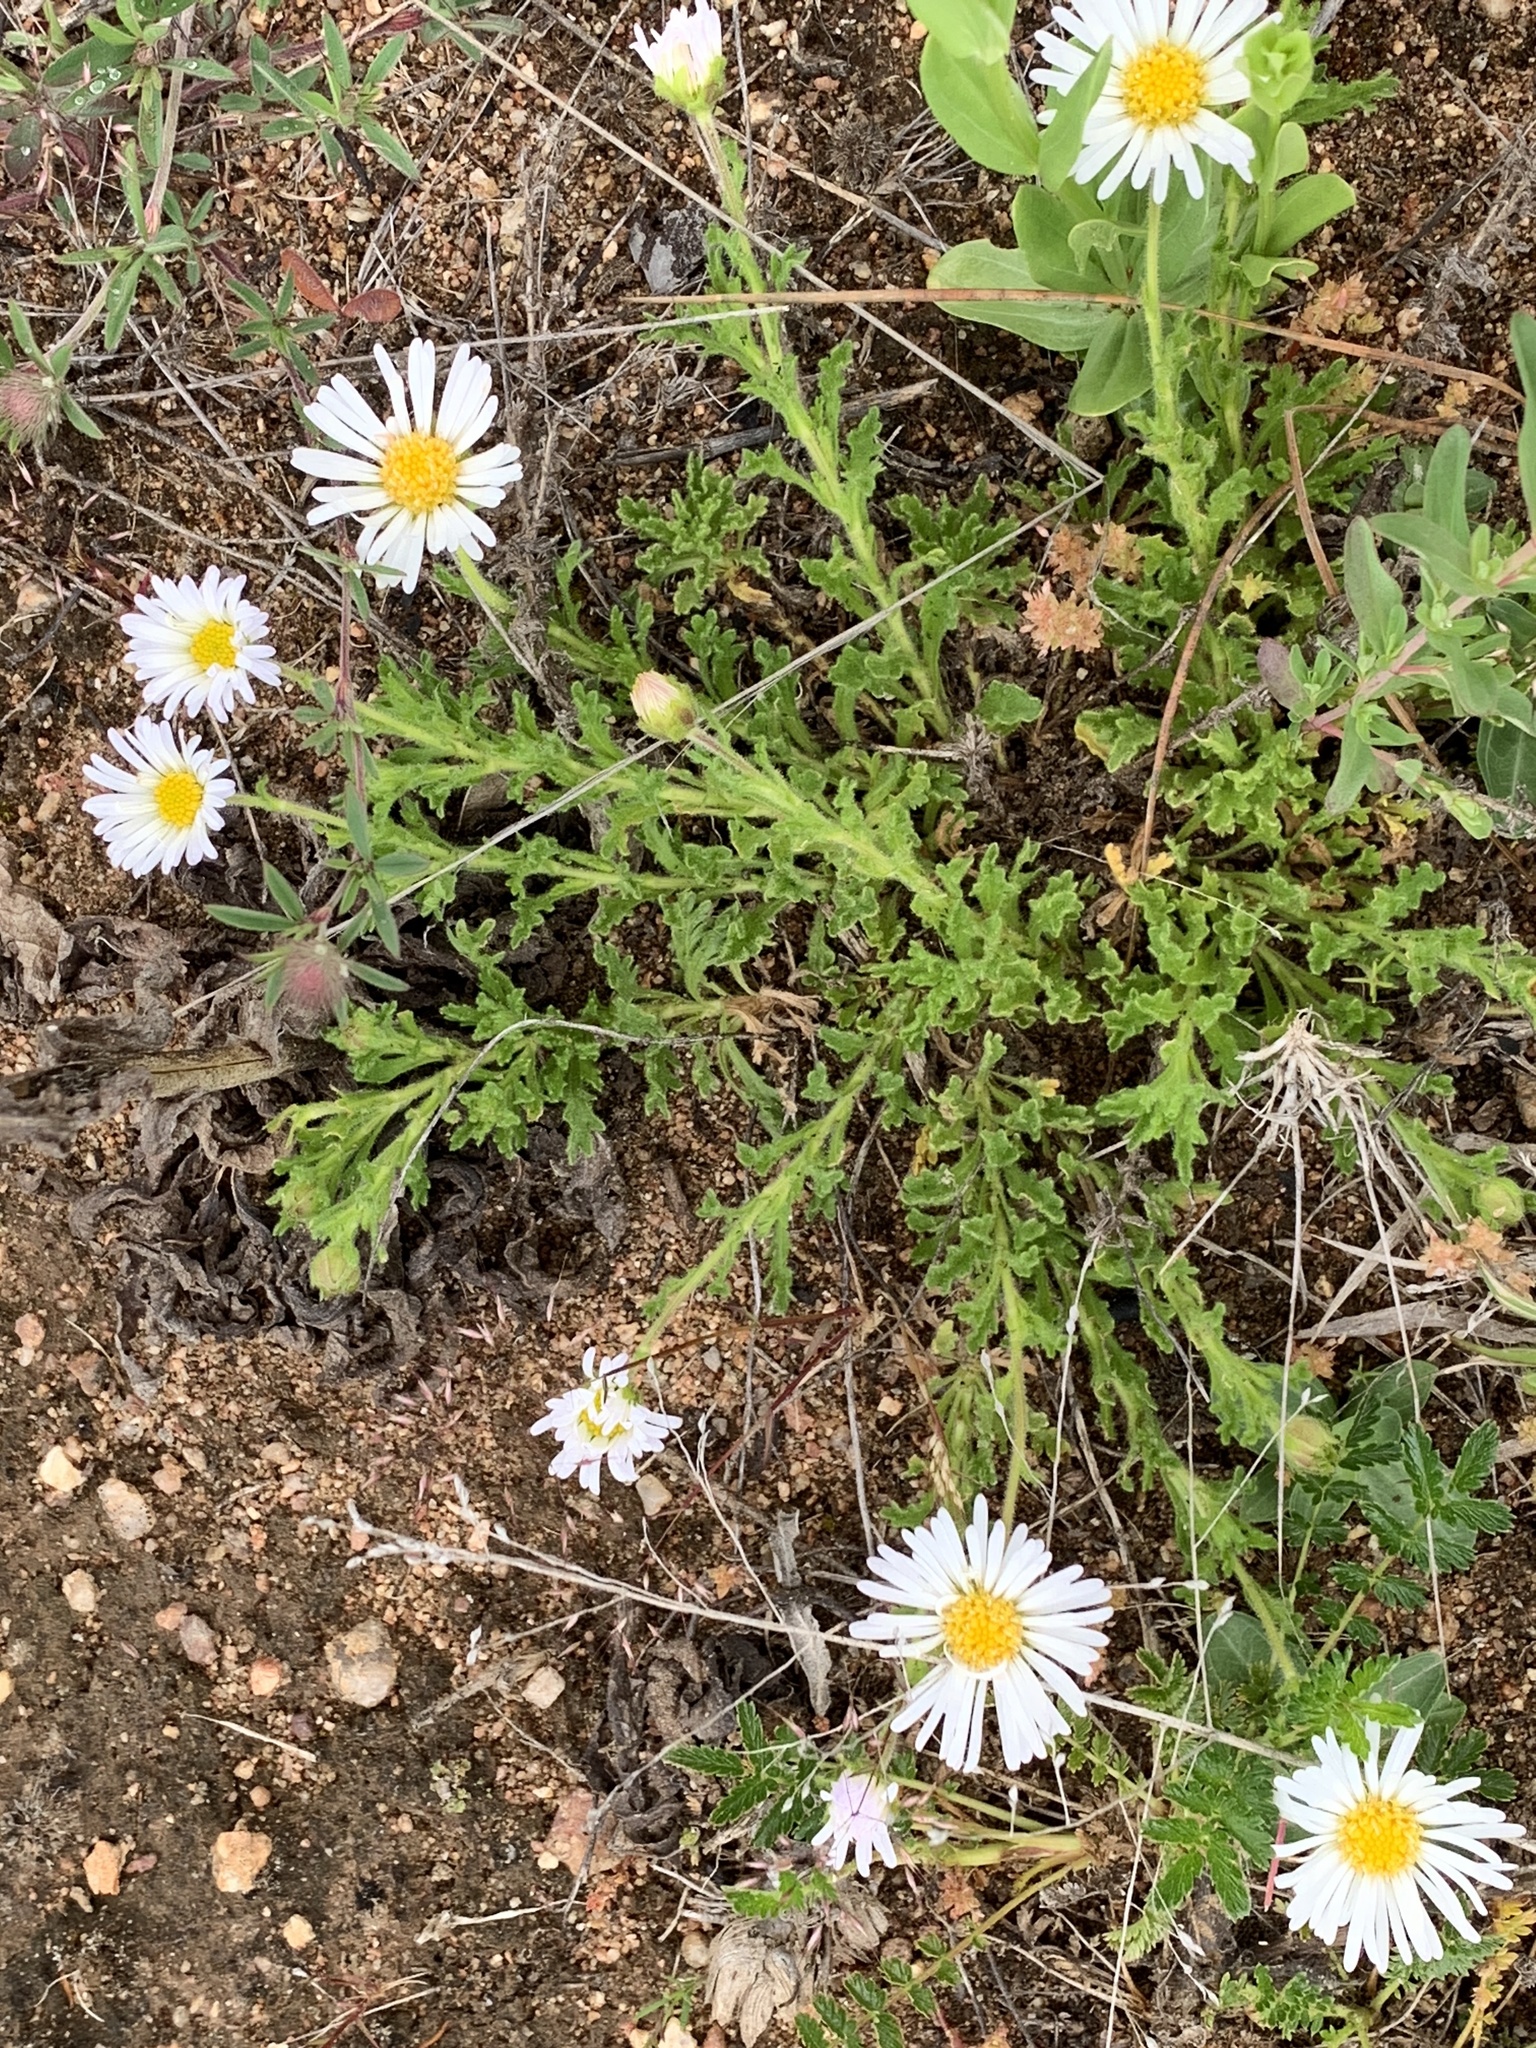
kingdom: Plantae
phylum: Tracheophyta
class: Magnoliopsida
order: Asterales
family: Asteraceae
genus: Calotis
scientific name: Calotis glandulosa
